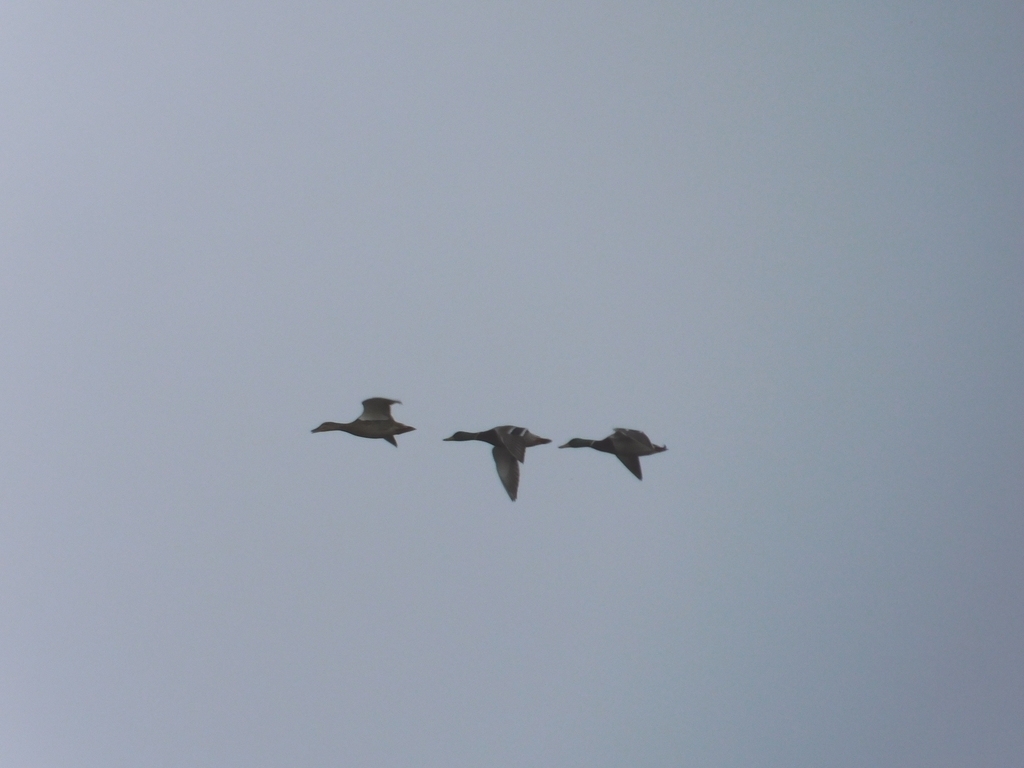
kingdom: Animalia
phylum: Chordata
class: Aves
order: Anseriformes
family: Anatidae
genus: Anas
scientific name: Anas platyrhynchos
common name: Mallard
